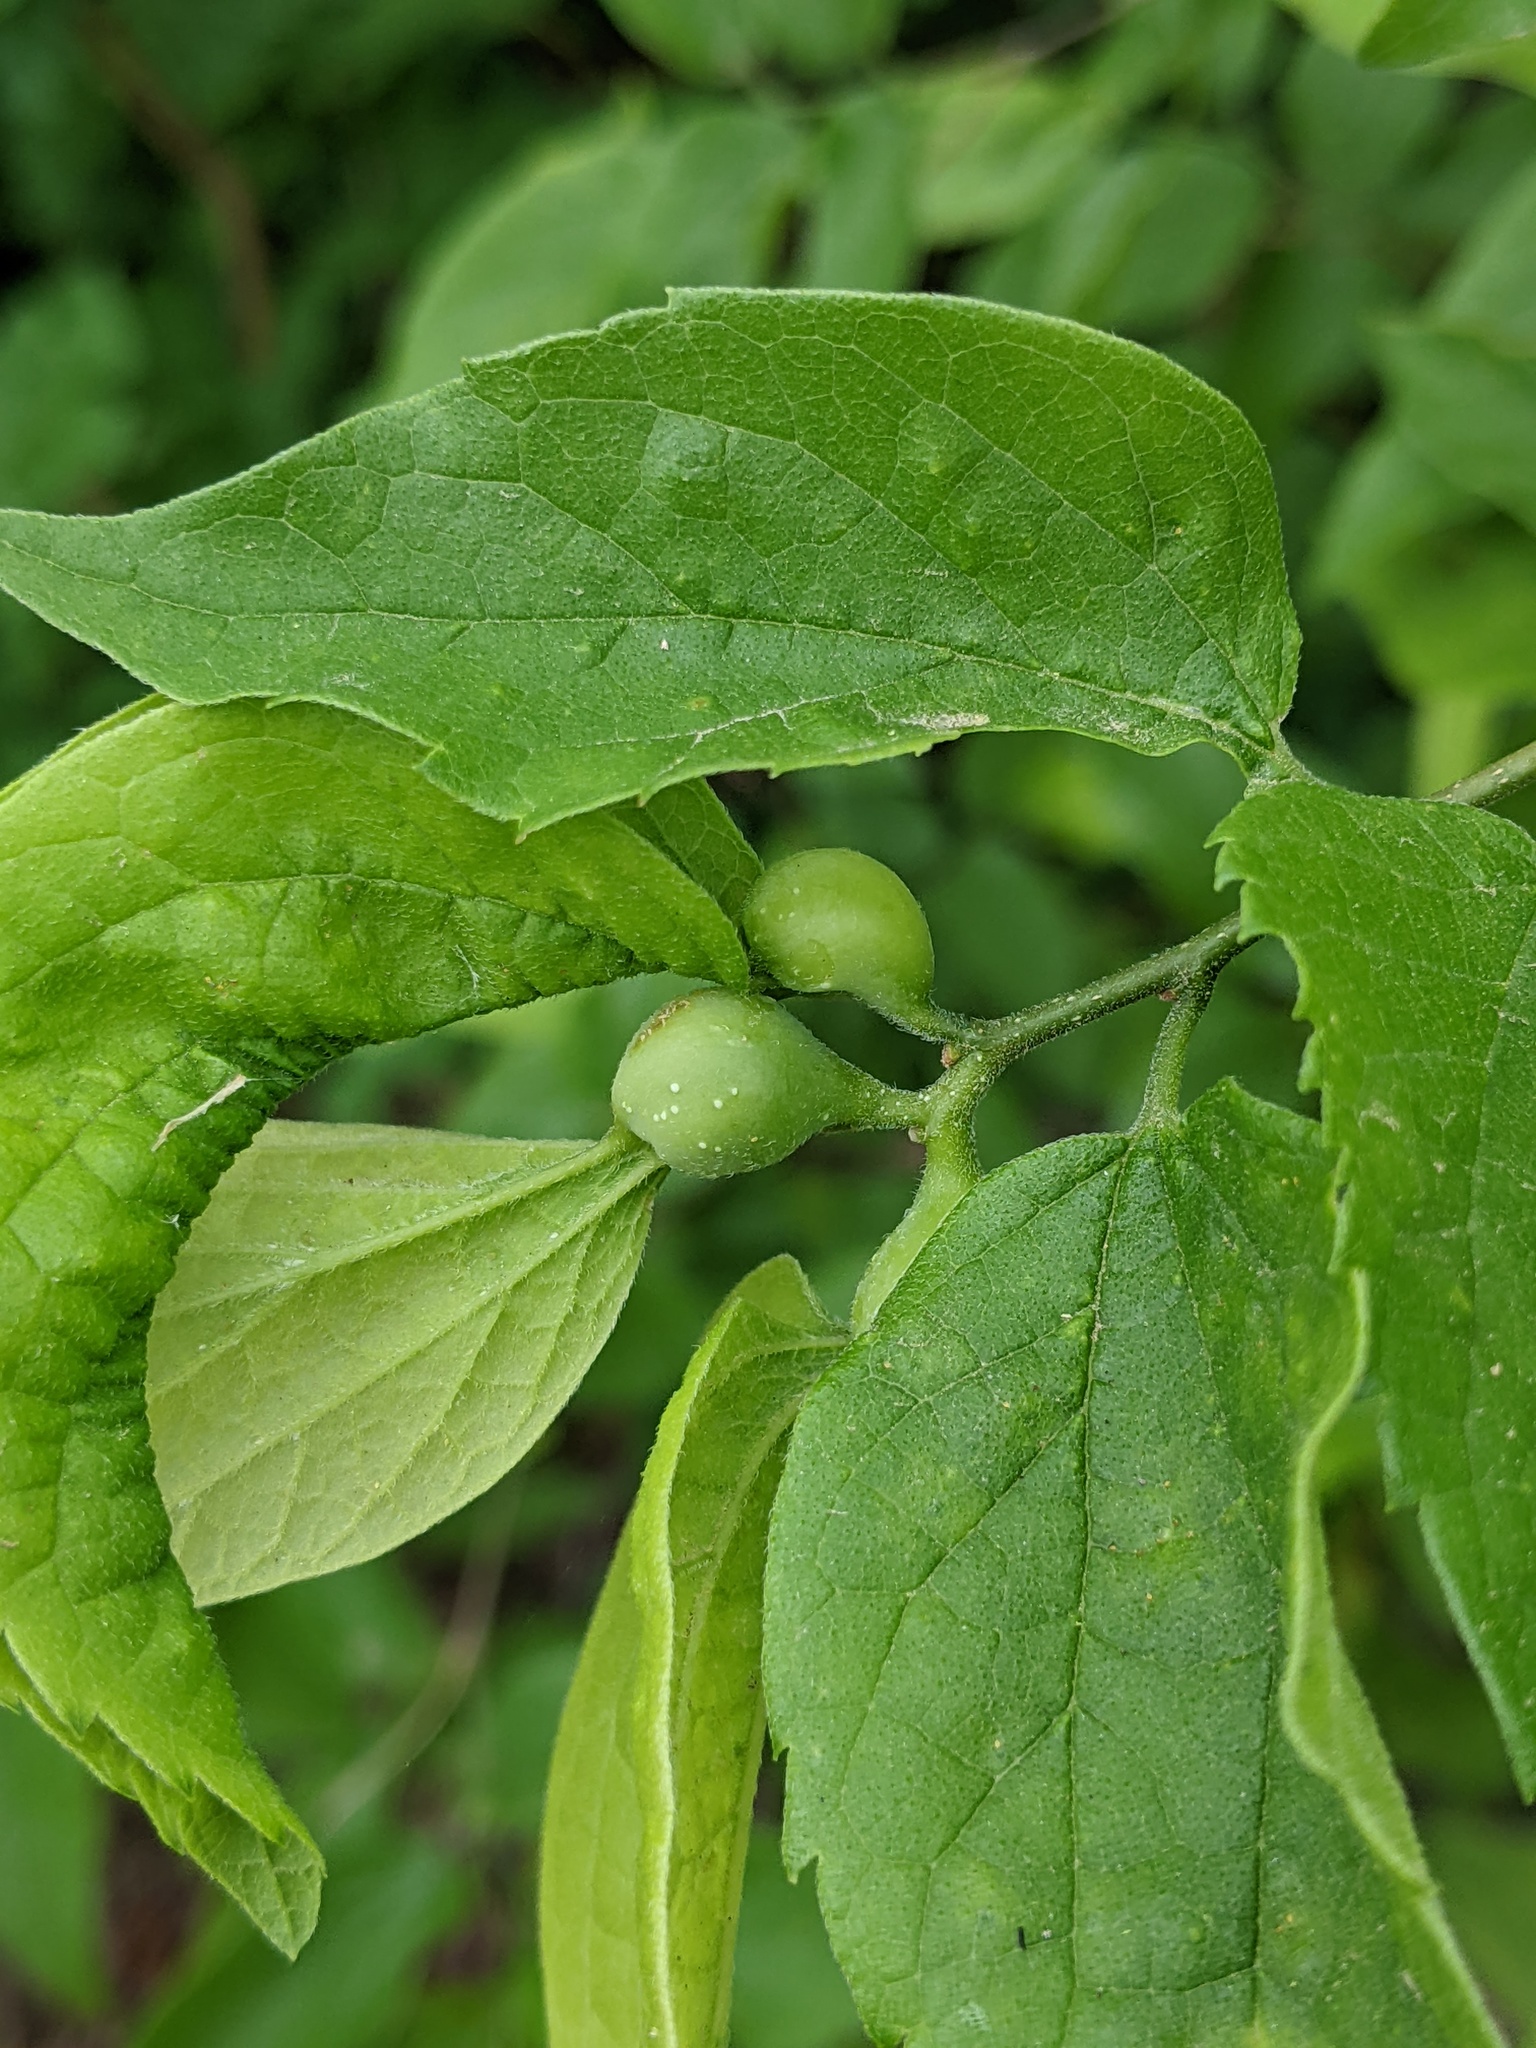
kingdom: Animalia
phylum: Arthropoda
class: Insecta
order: Hemiptera
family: Aphalaridae
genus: Pachypsylla
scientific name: Pachypsylla venusta
